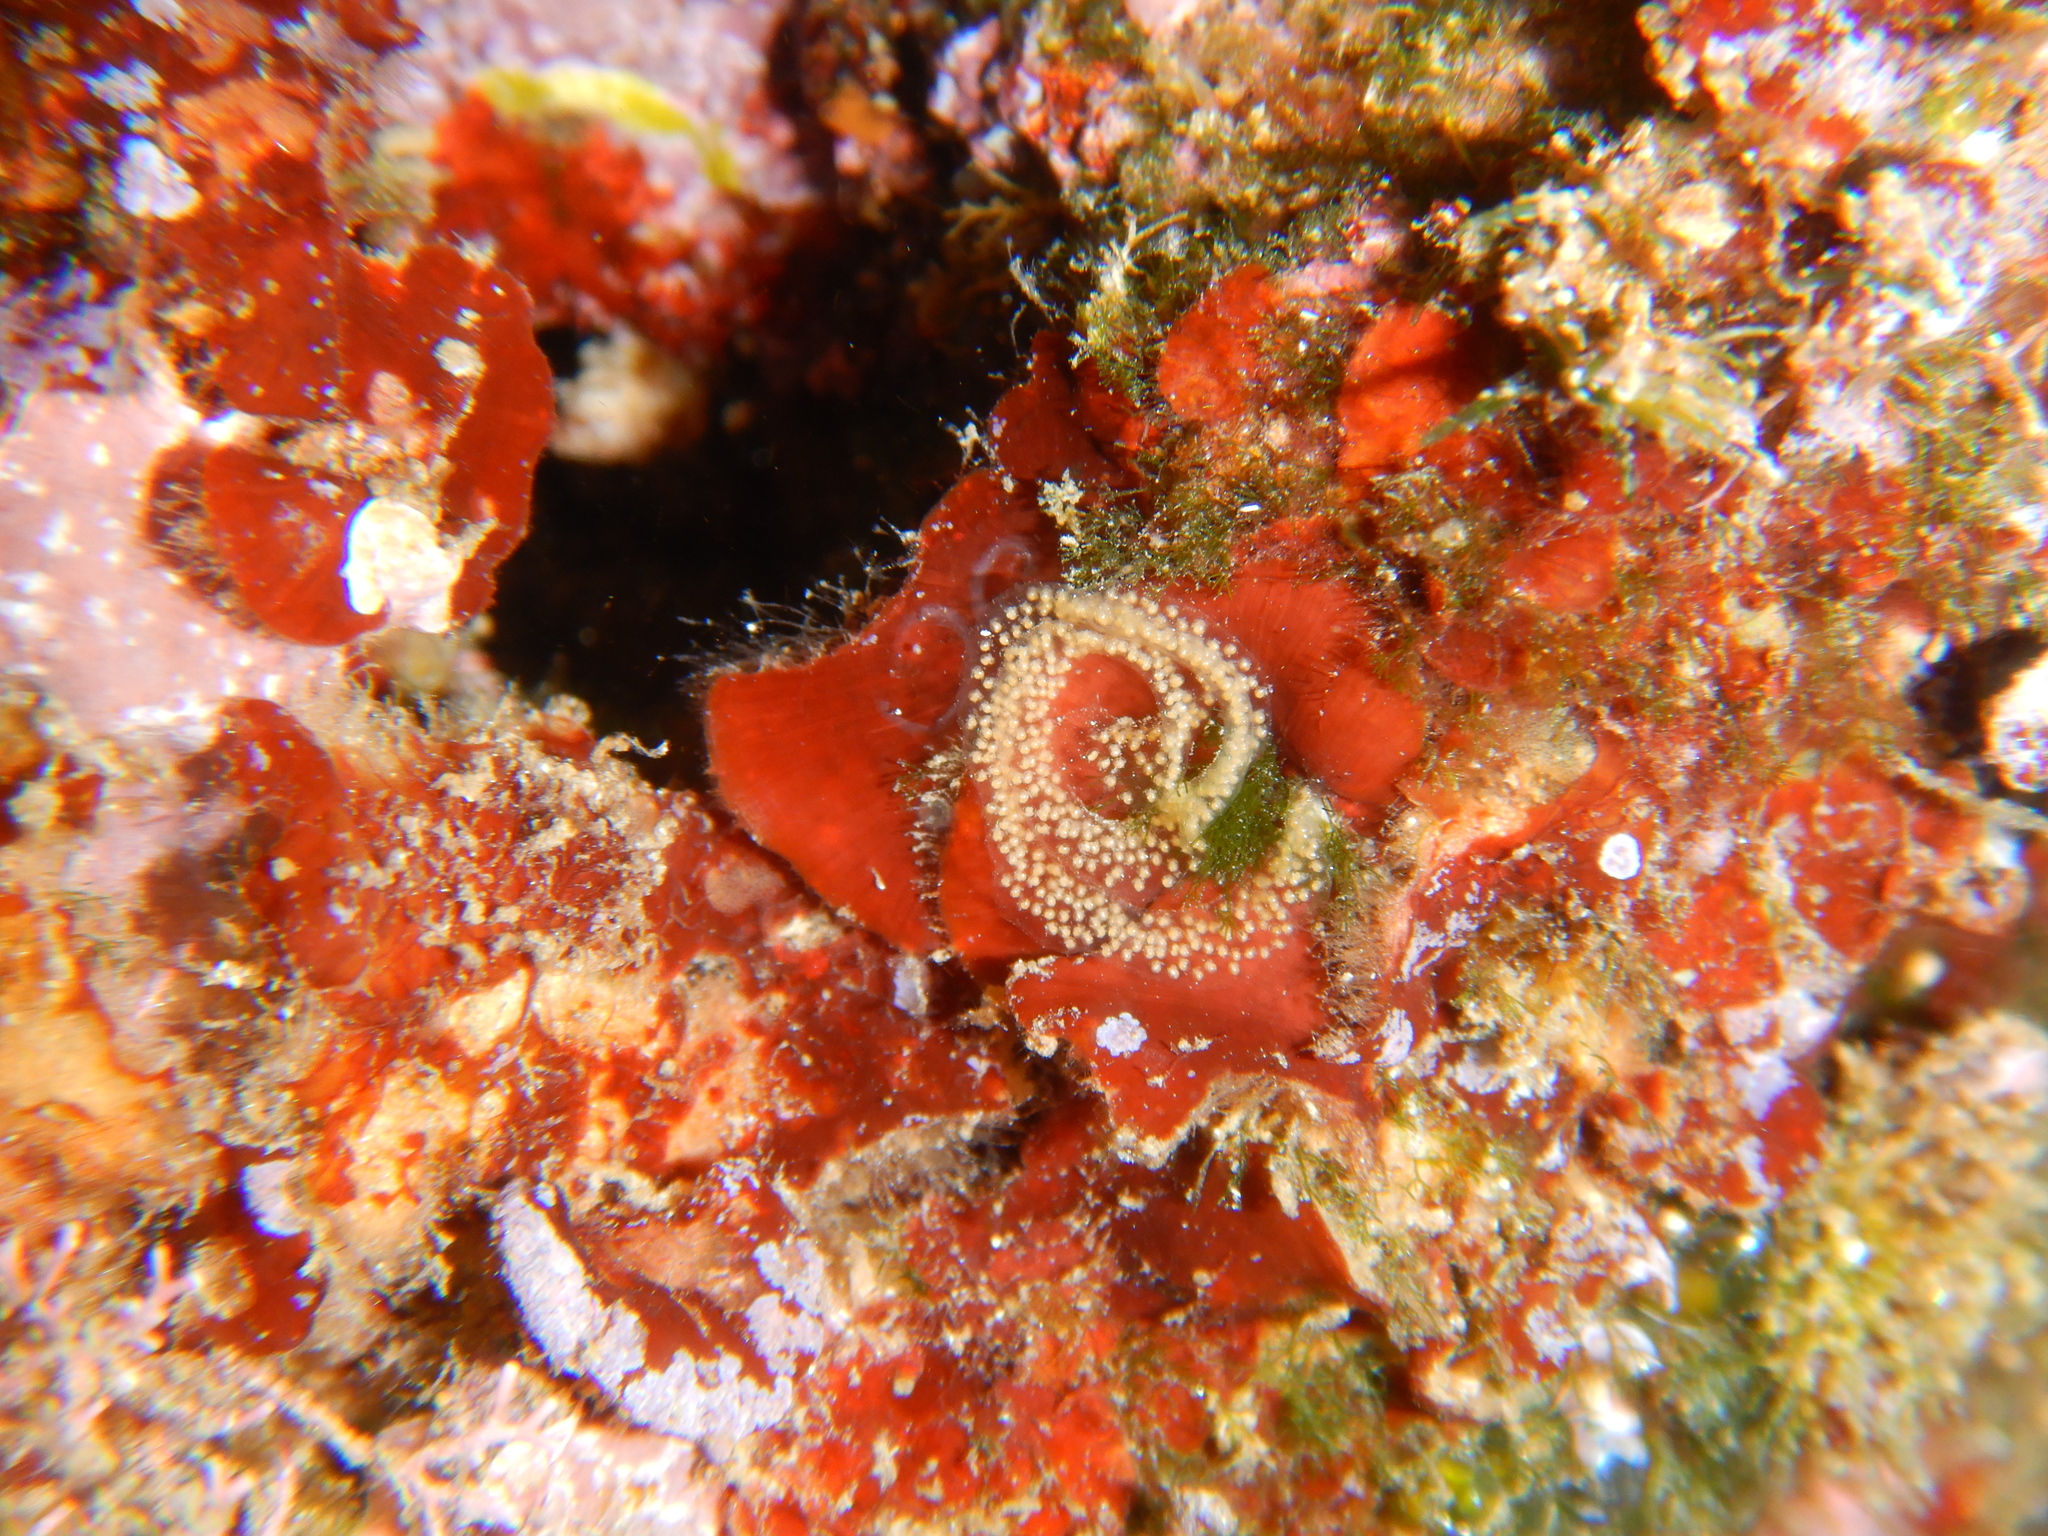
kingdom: Animalia
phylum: Mollusca
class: Gastropoda
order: Nudibranchia
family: Chromodorididae
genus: Felimare
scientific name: Felimare villafranca
